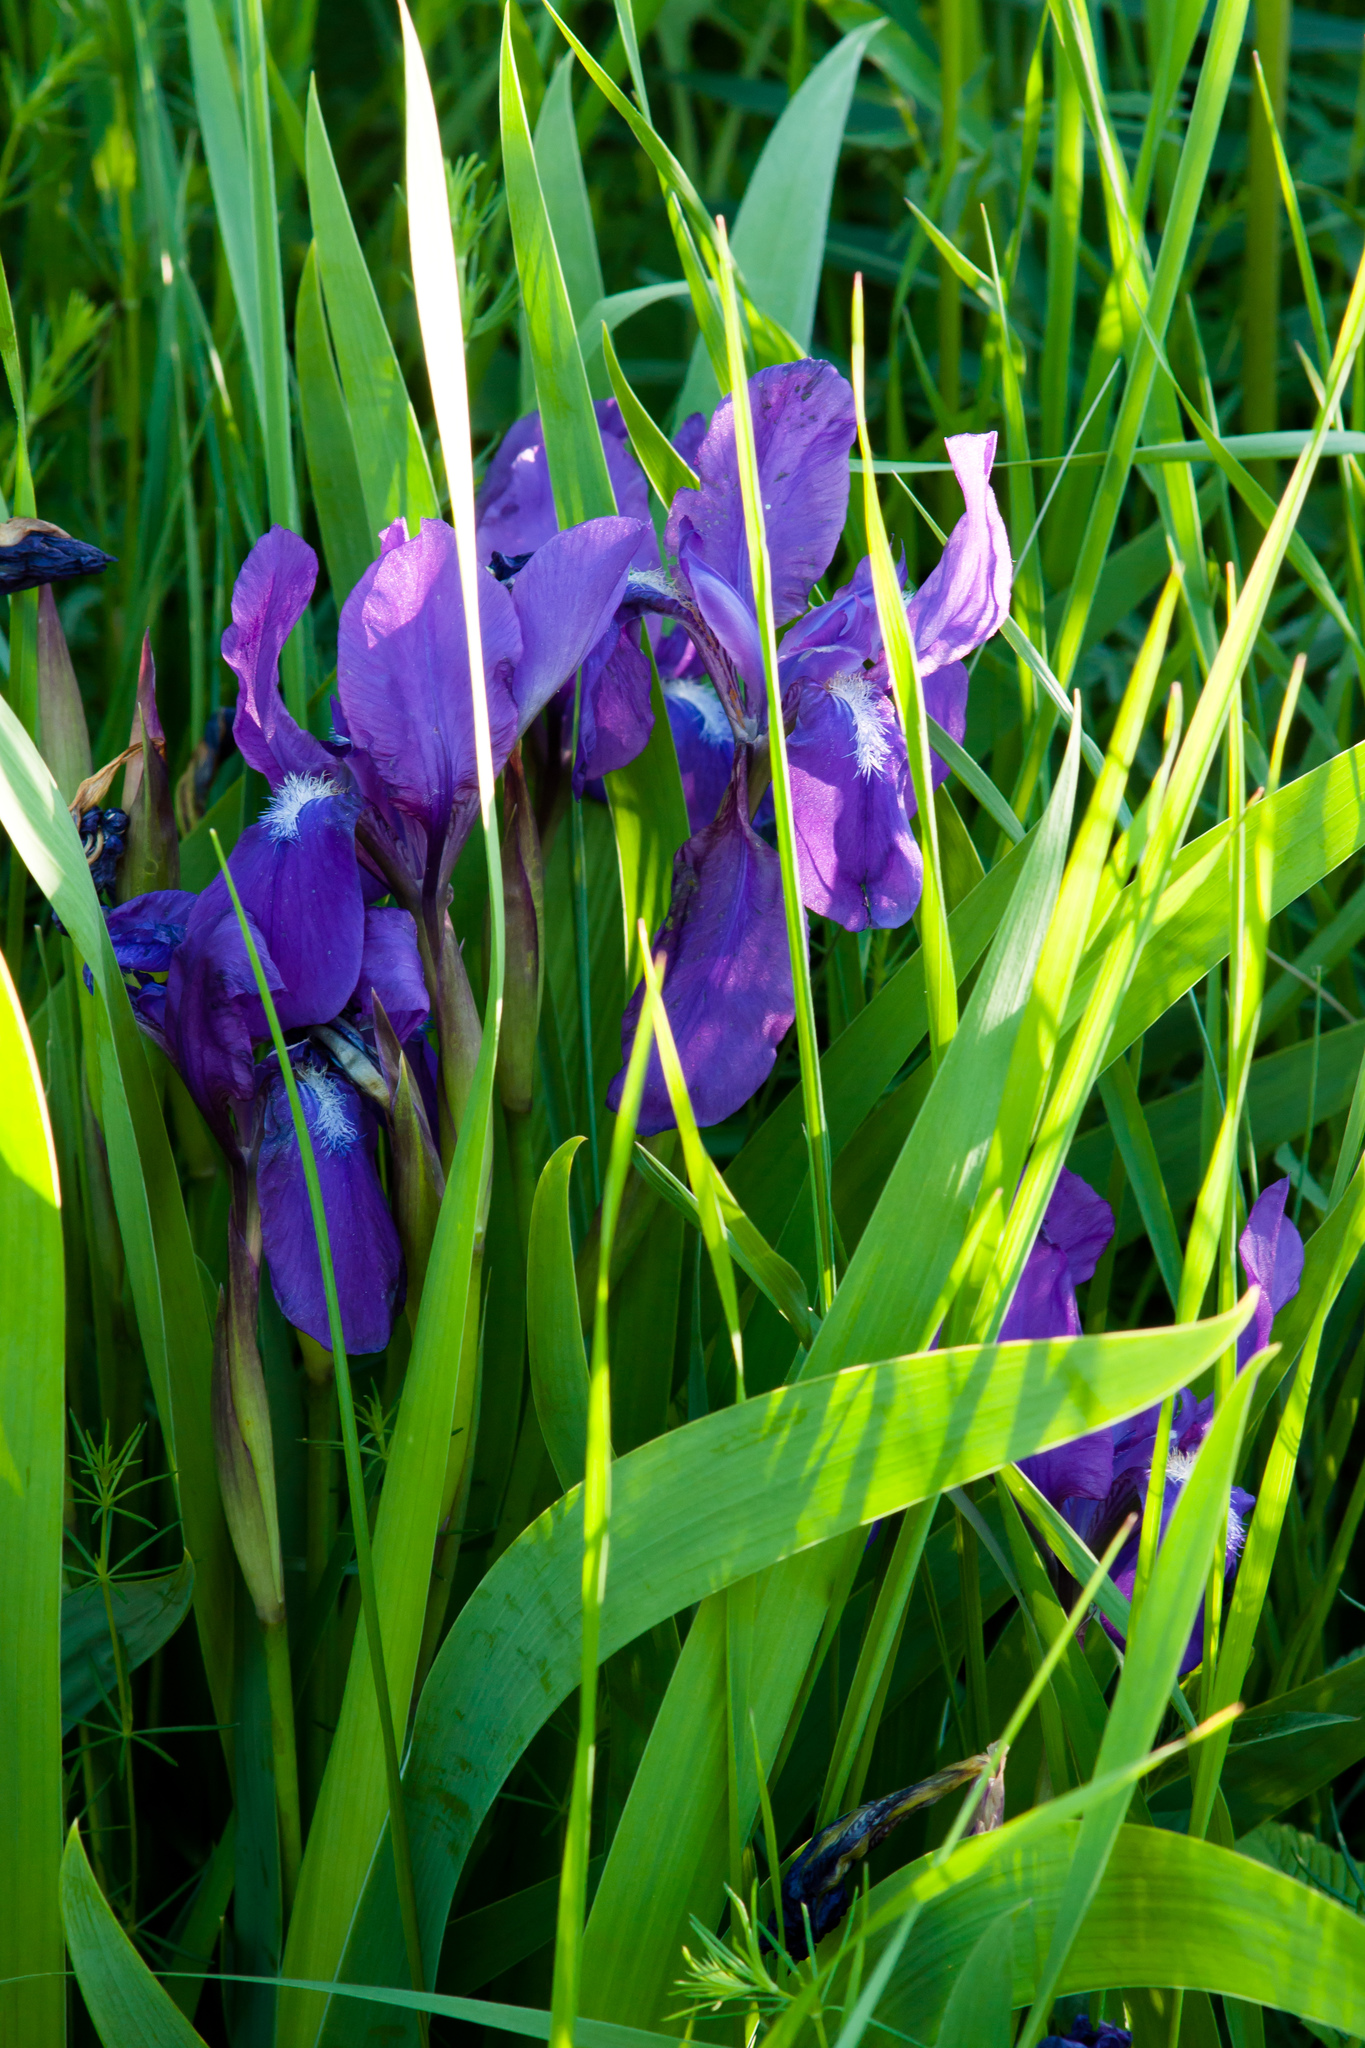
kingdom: Plantae
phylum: Tracheophyta
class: Liliopsida
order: Asparagales
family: Iridaceae
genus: Iris
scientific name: Iris aphylla
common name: Stool iris
